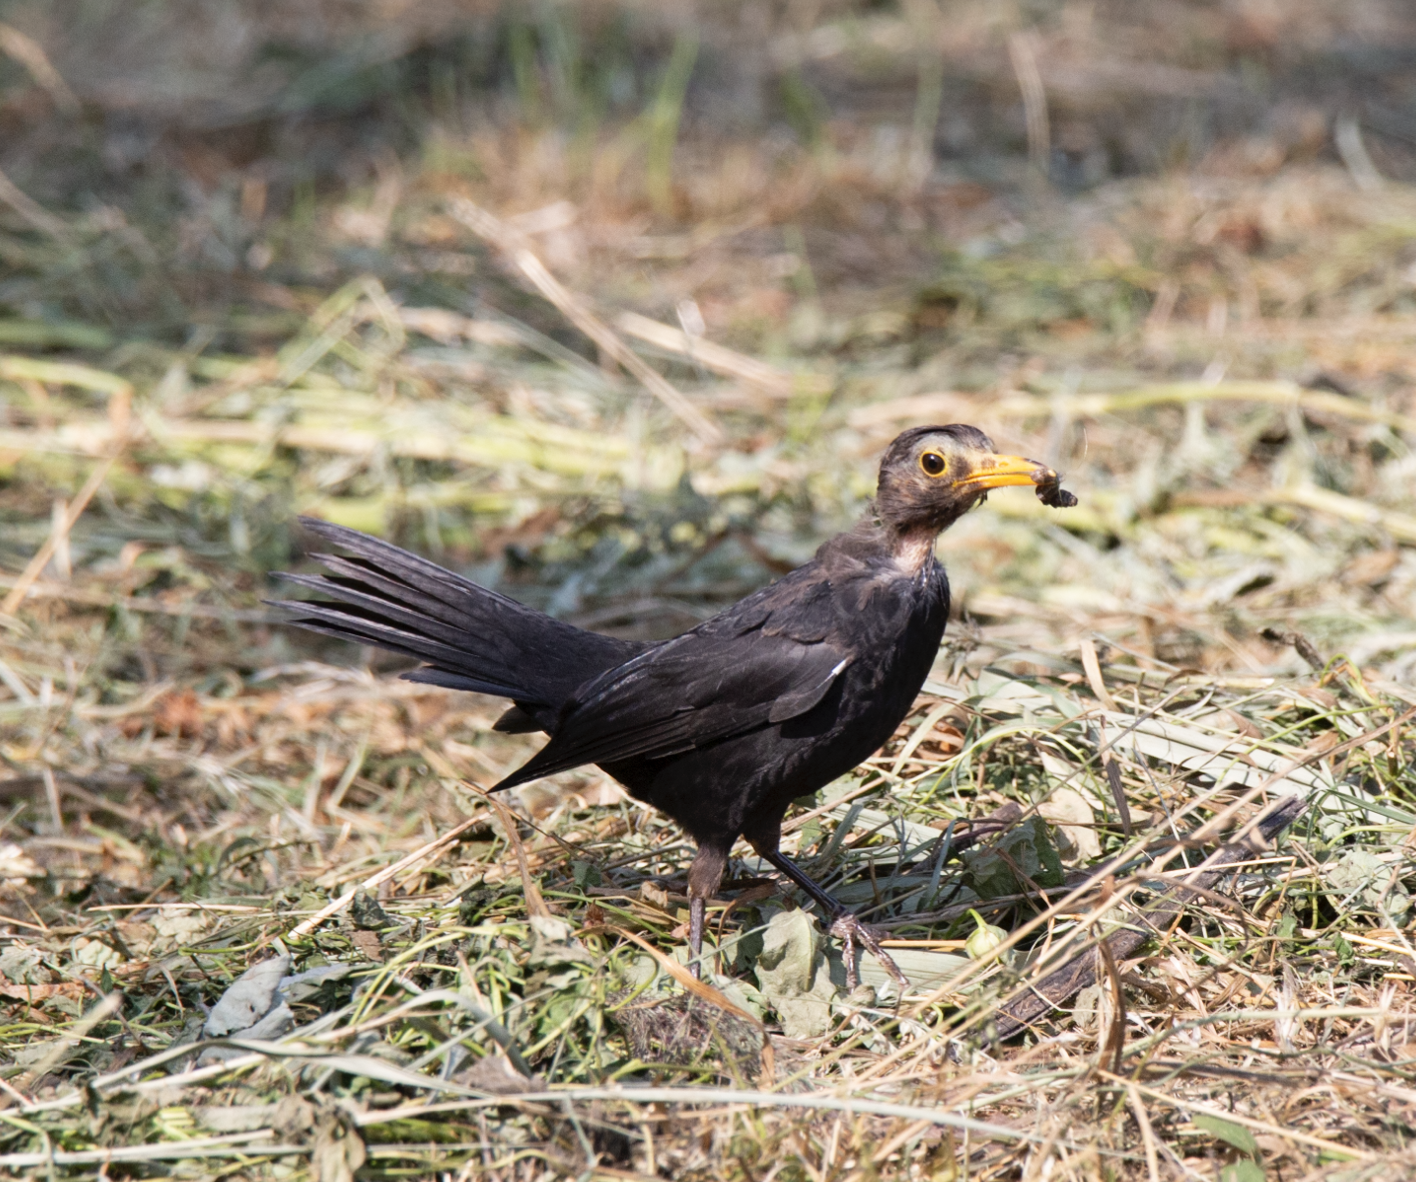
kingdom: Animalia
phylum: Chordata
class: Aves
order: Passeriformes
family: Turdidae
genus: Turdus
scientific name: Turdus merula
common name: Common blackbird
